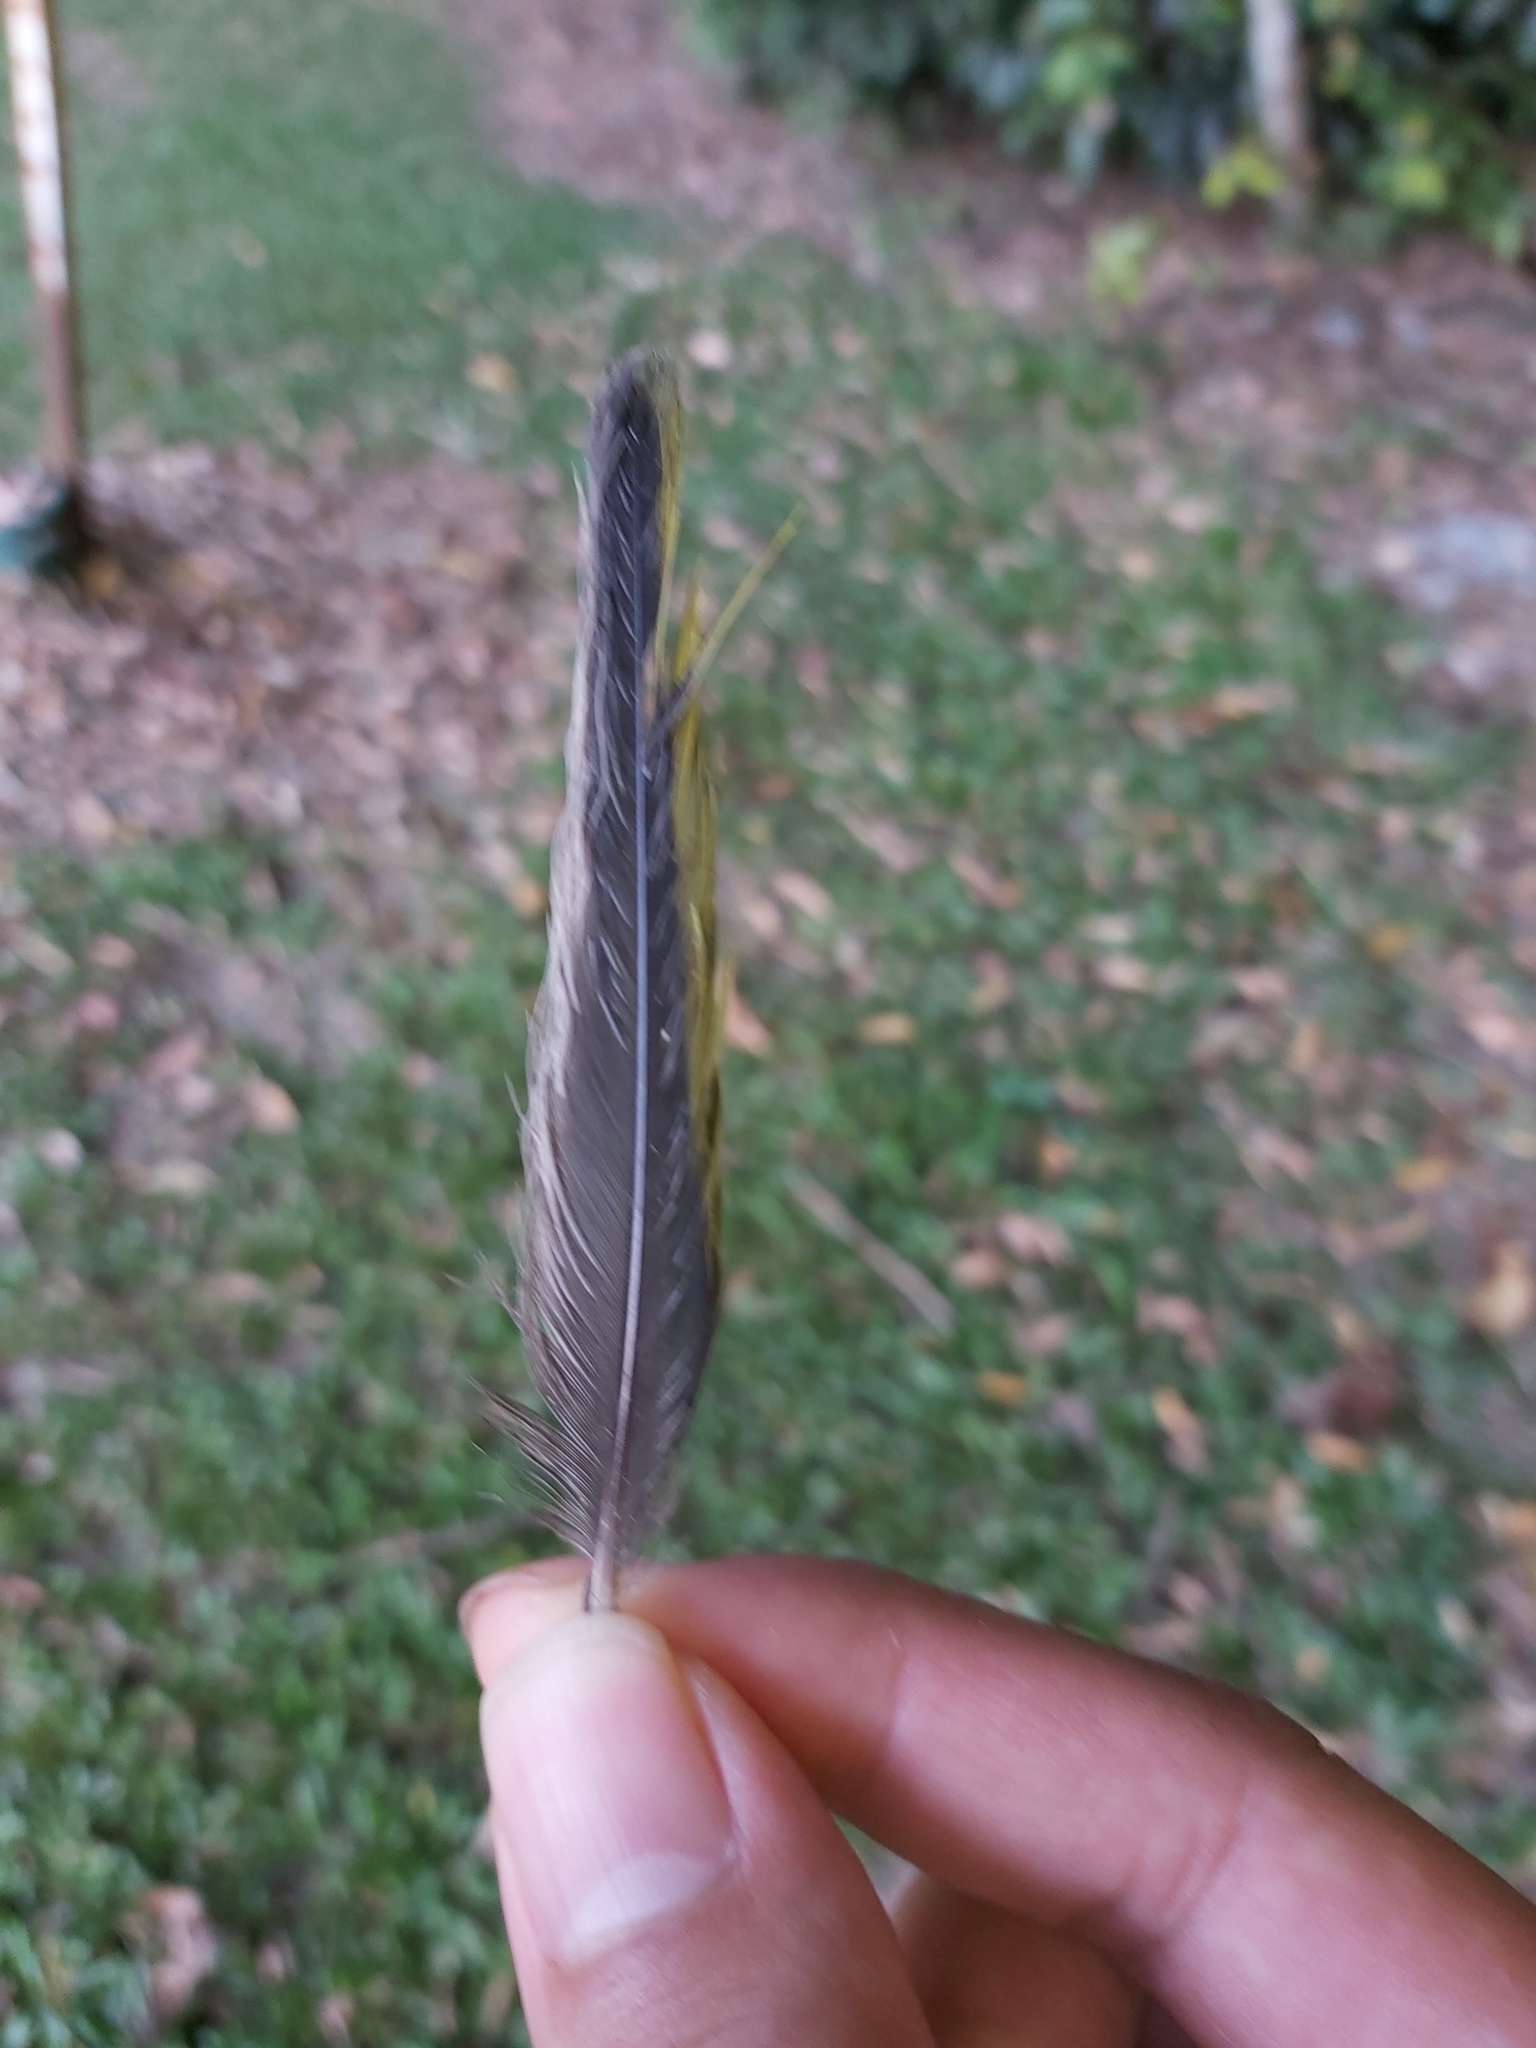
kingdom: Animalia
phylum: Chordata
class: Aves
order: Passeriformes
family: Oriolidae
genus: Sphecotheres
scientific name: Sphecotheres vieilloti
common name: Australasian figbird
